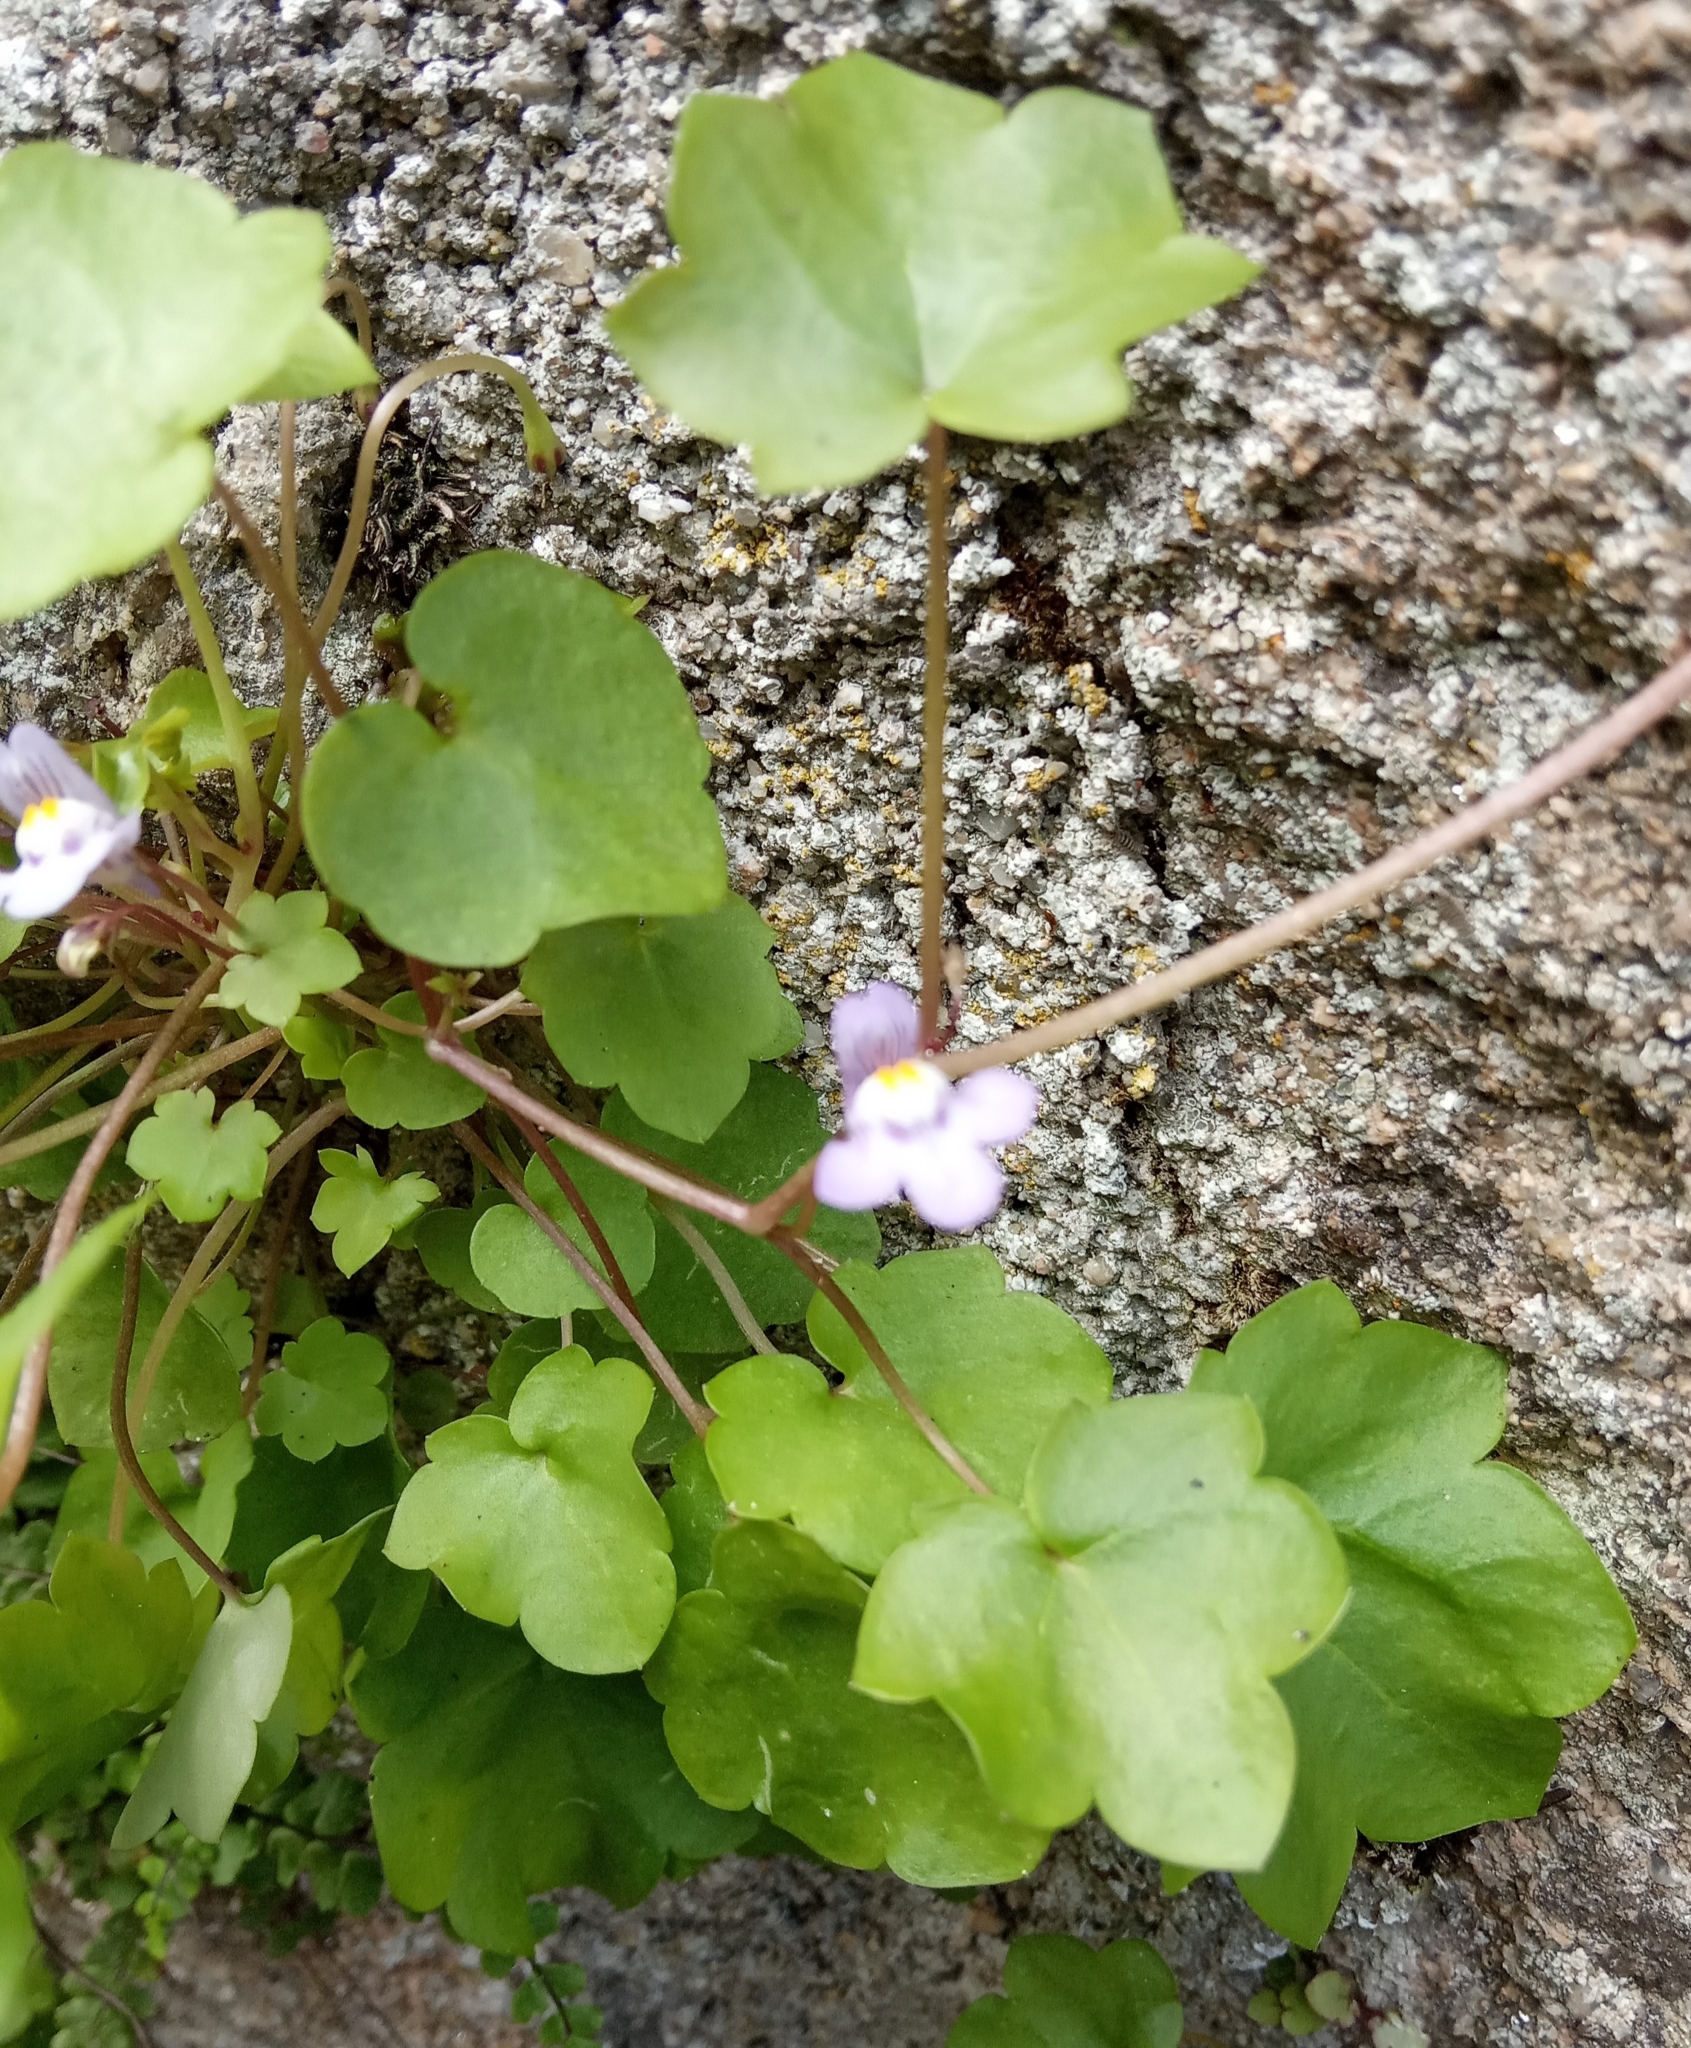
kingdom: Plantae
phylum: Tracheophyta
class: Magnoliopsida
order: Lamiales
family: Plantaginaceae
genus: Cymbalaria
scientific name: Cymbalaria muralis
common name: Ivy-leaved toadflax
